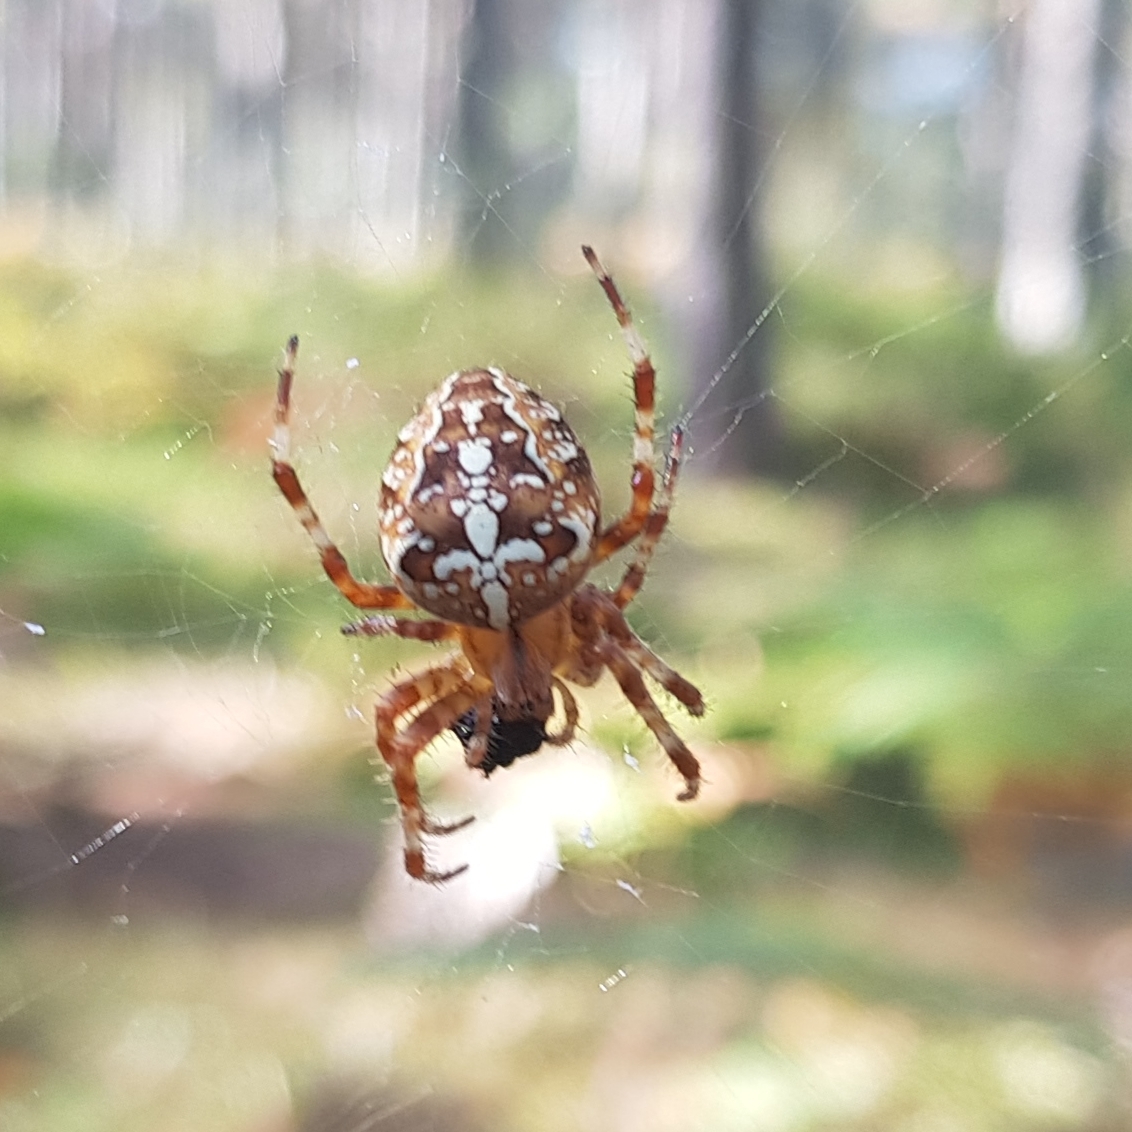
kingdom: Animalia
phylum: Arthropoda
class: Arachnida
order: Araneae
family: Araneidae
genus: Araneus
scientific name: Araneus diadematus
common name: Cross orbweaver
